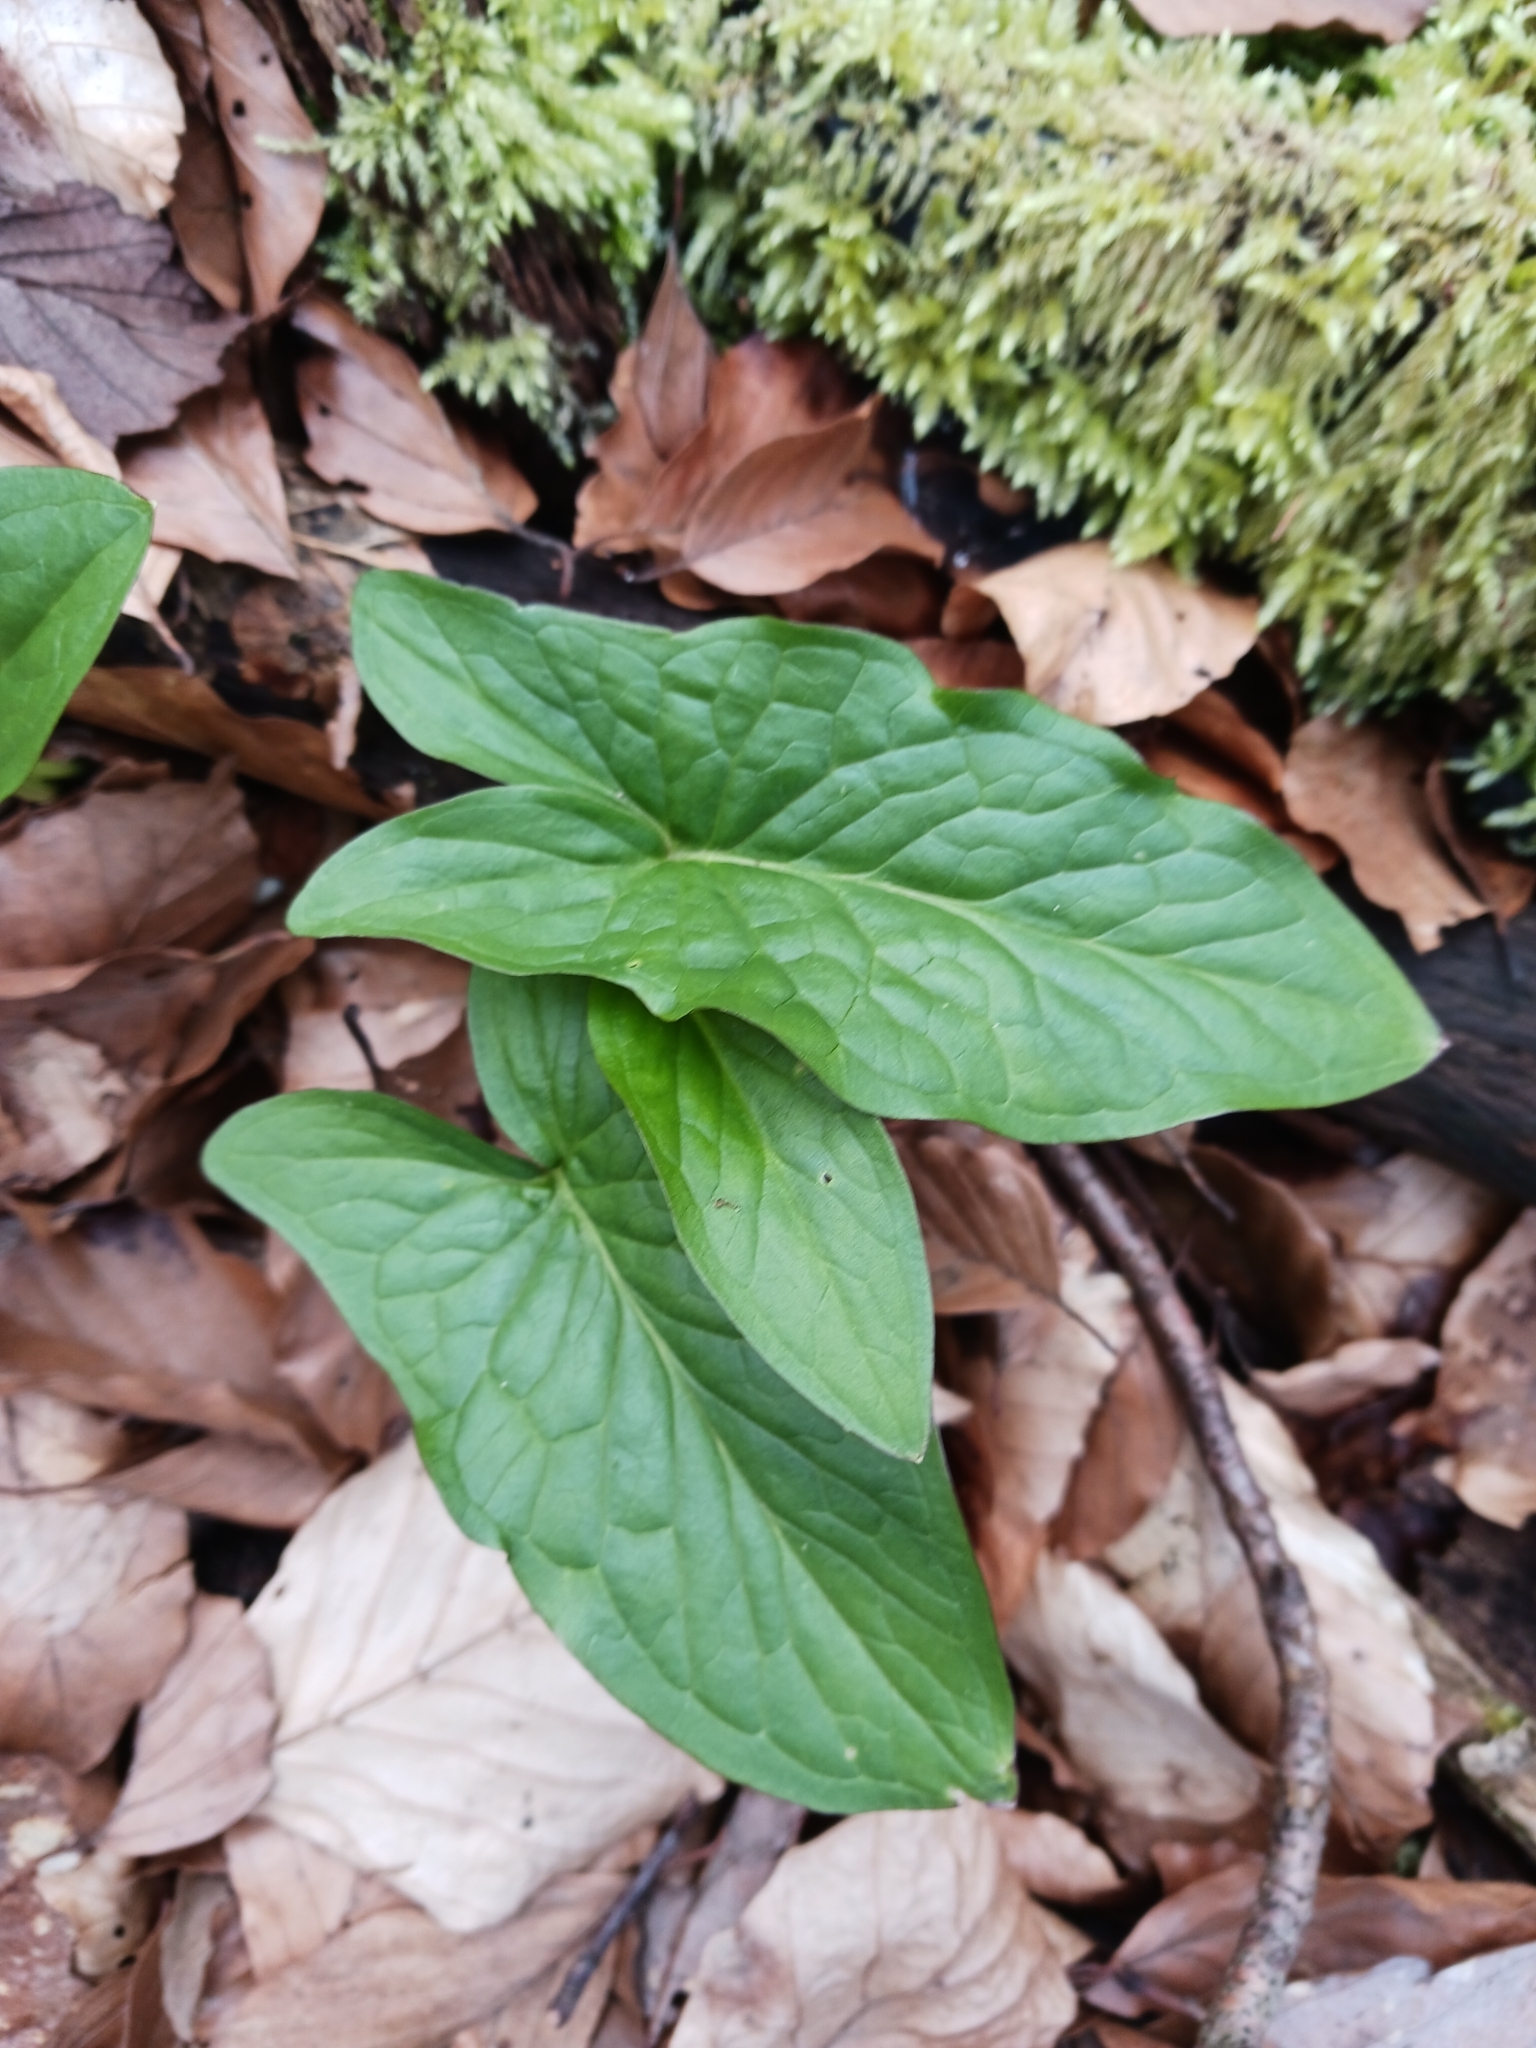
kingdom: Plantae
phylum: Tracheophyta
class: Liliopsida
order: Alismatales
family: Araceae
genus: Arum
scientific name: Arum maculatum
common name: Lords-and-ladies
